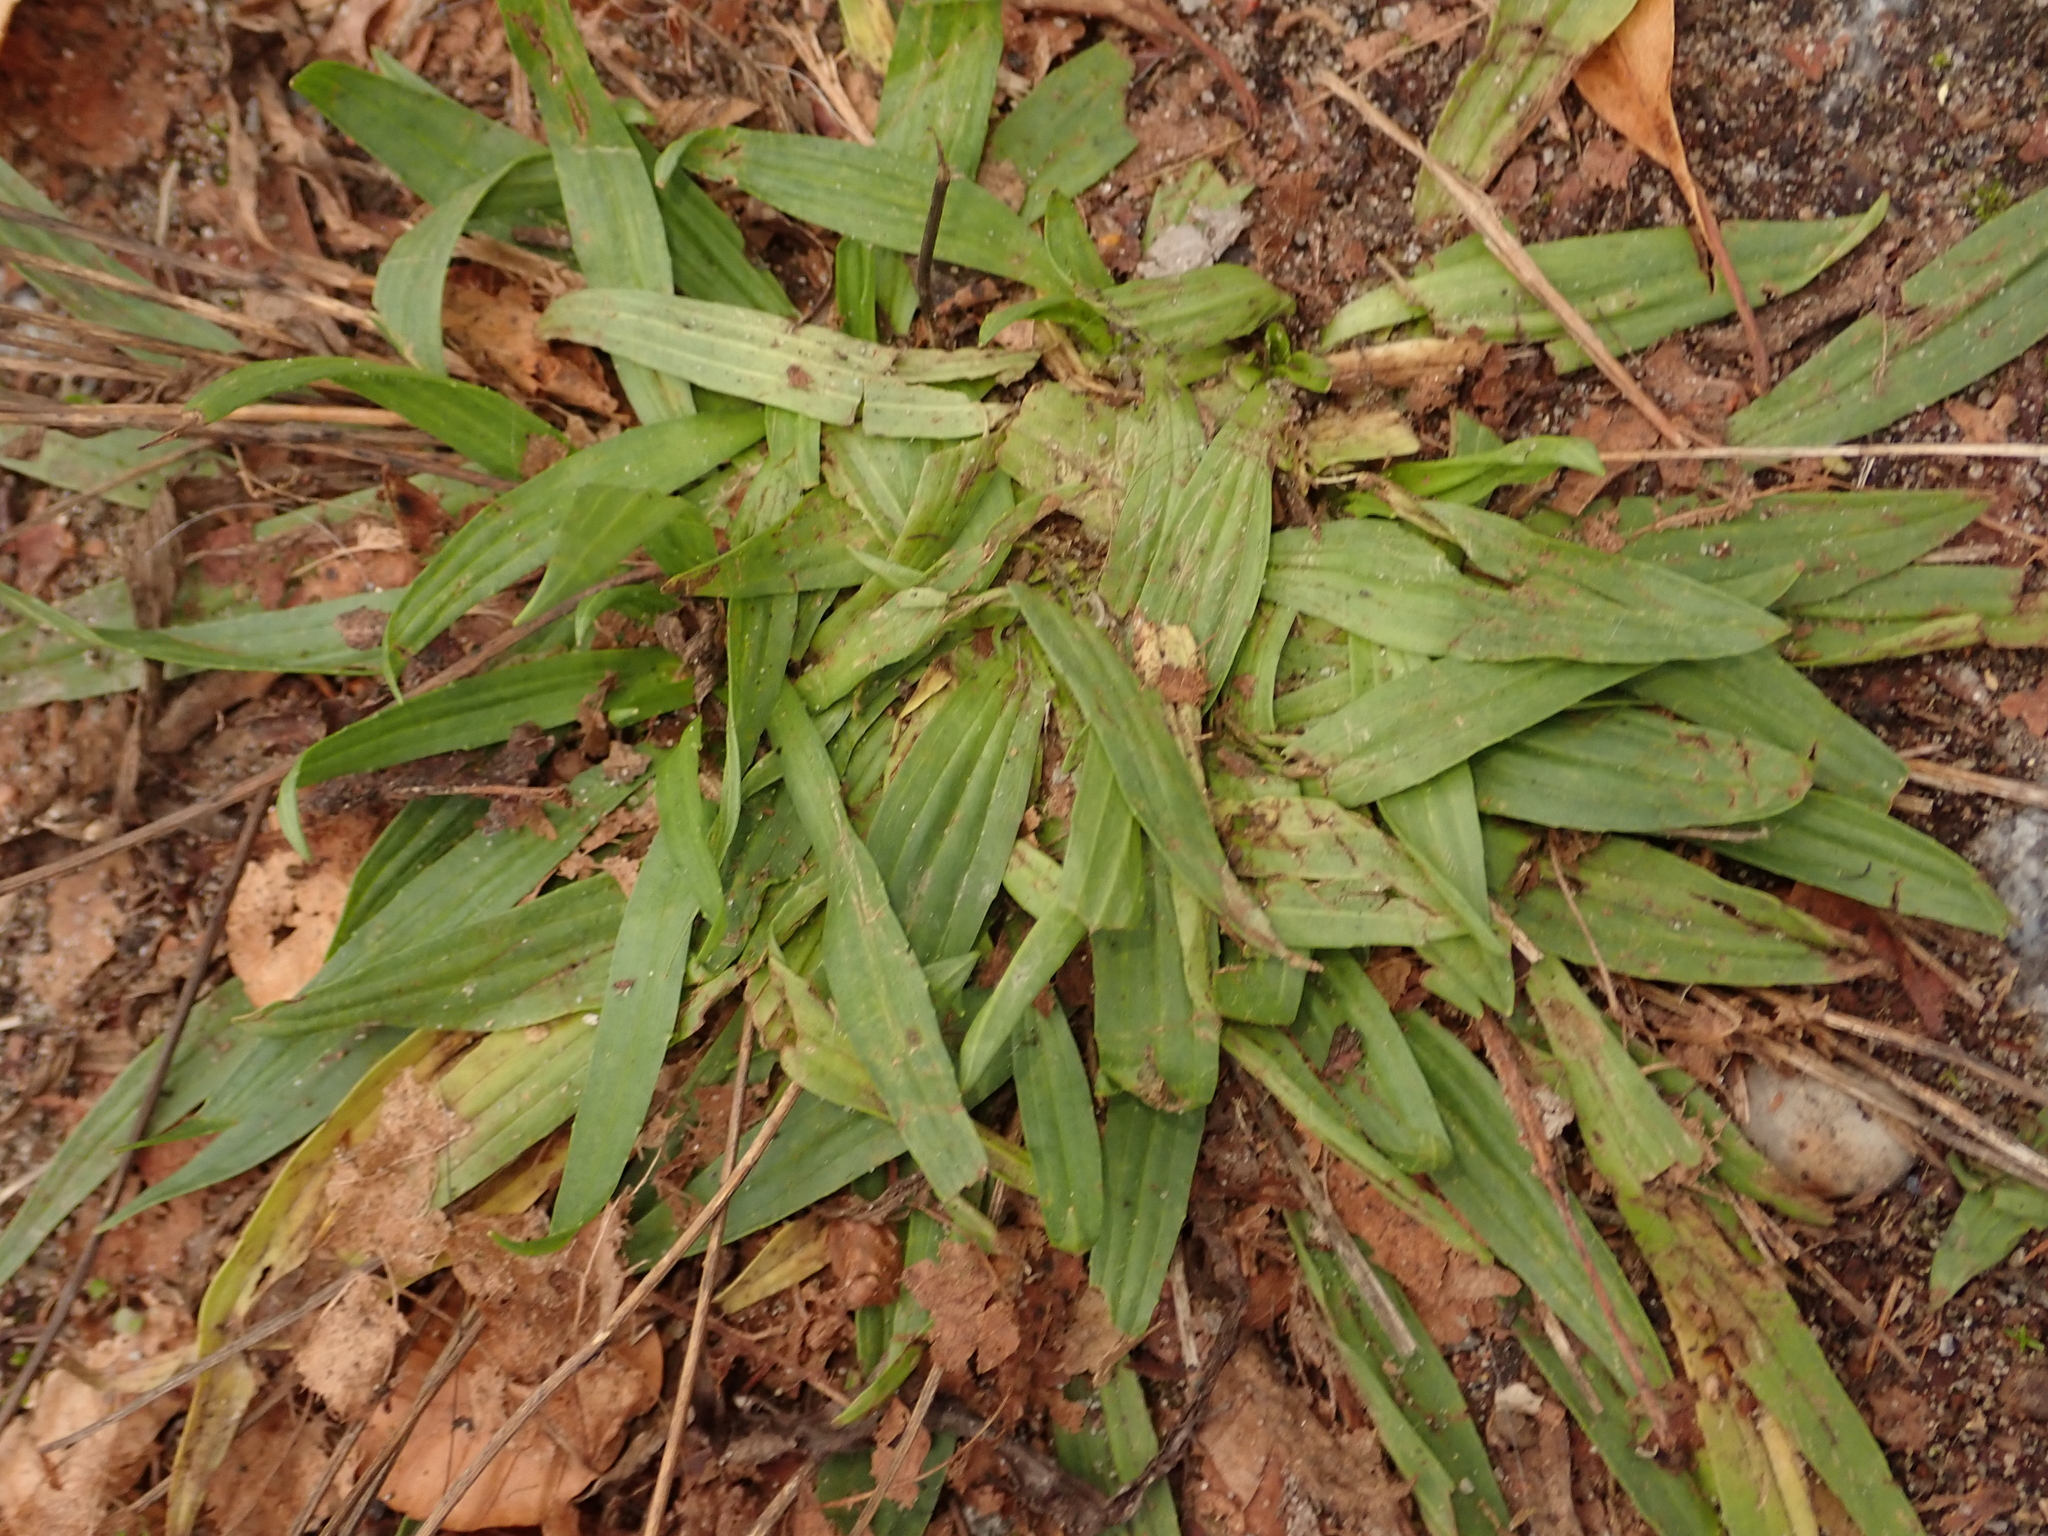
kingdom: Plantae
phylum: Tracheophyta
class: Magnoliopsida
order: Lamiales
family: Plantaginaceae
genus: Plantago
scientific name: Plantago lanceolata
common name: Ribwort plantain
